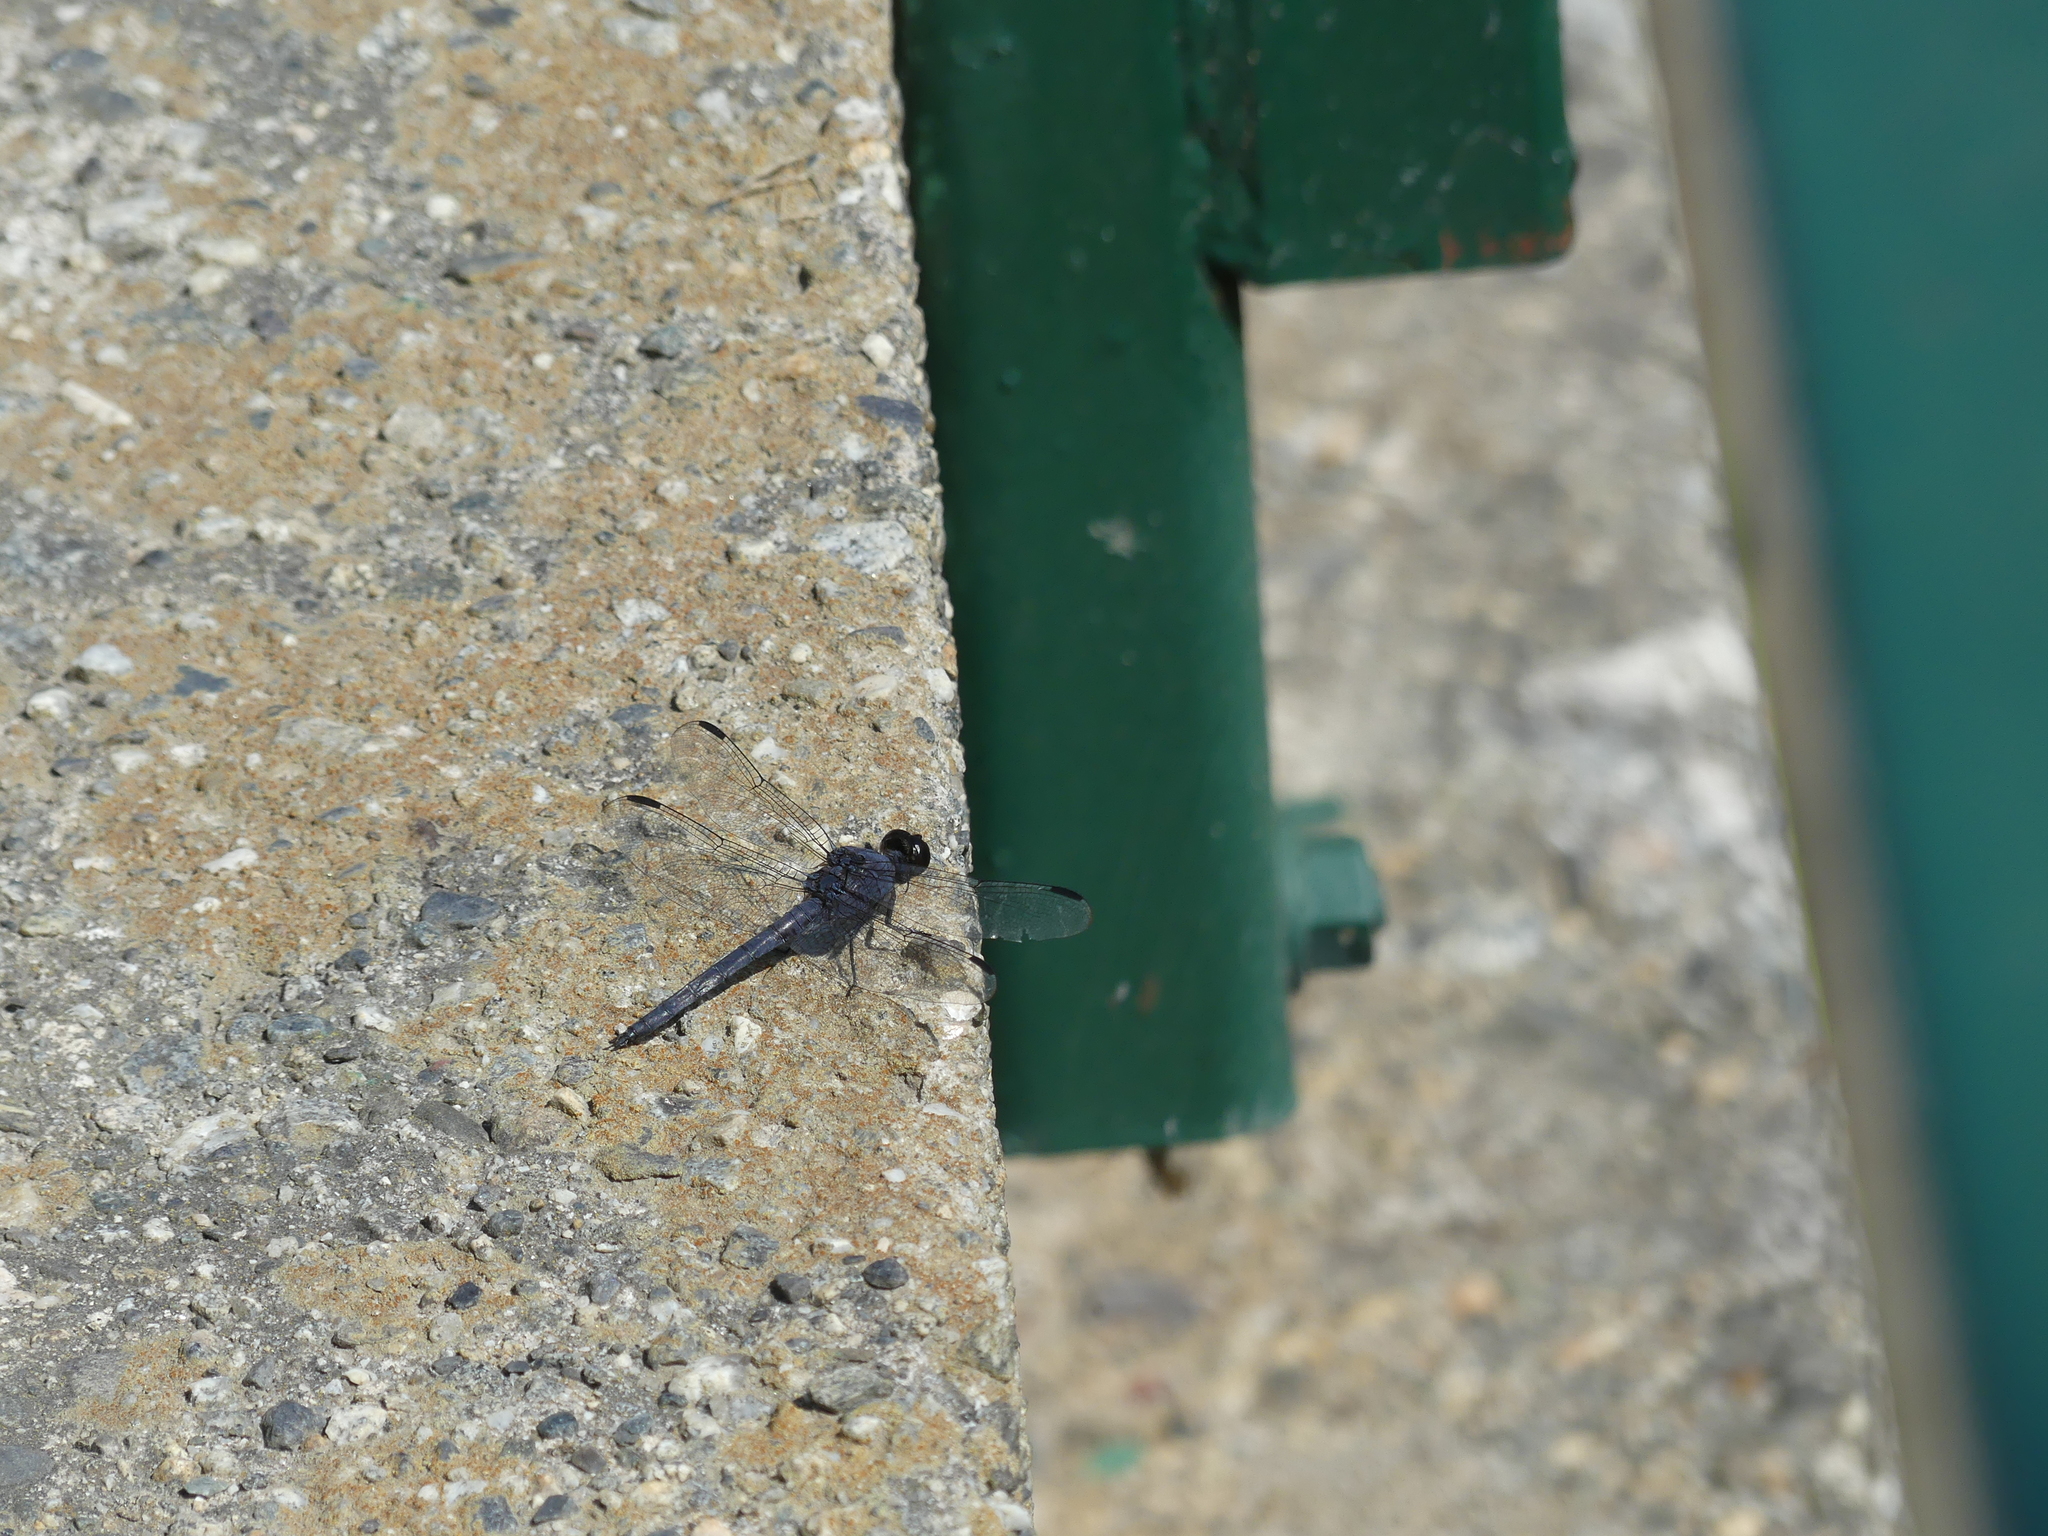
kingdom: Animalia
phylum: Arthropoda
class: Insecta
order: Odonata
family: Libellulidae
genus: Libellula
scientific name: Libellula incesta
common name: Slaty skimmer
